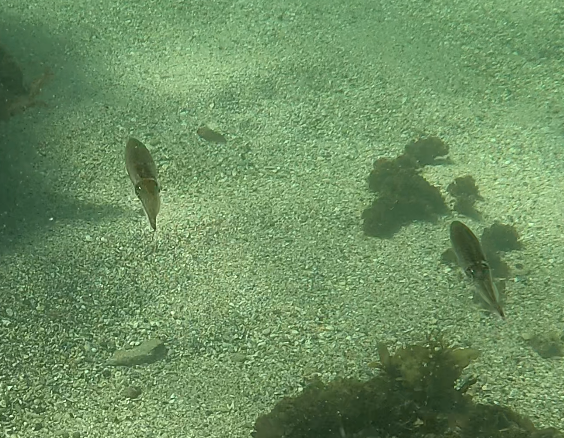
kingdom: Animalia
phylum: Mollusca
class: Cephalopoda
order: Myopsida
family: Loliginidae
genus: Sepioteuthis
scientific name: Sepioteuthis australis
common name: Southern reef squid
